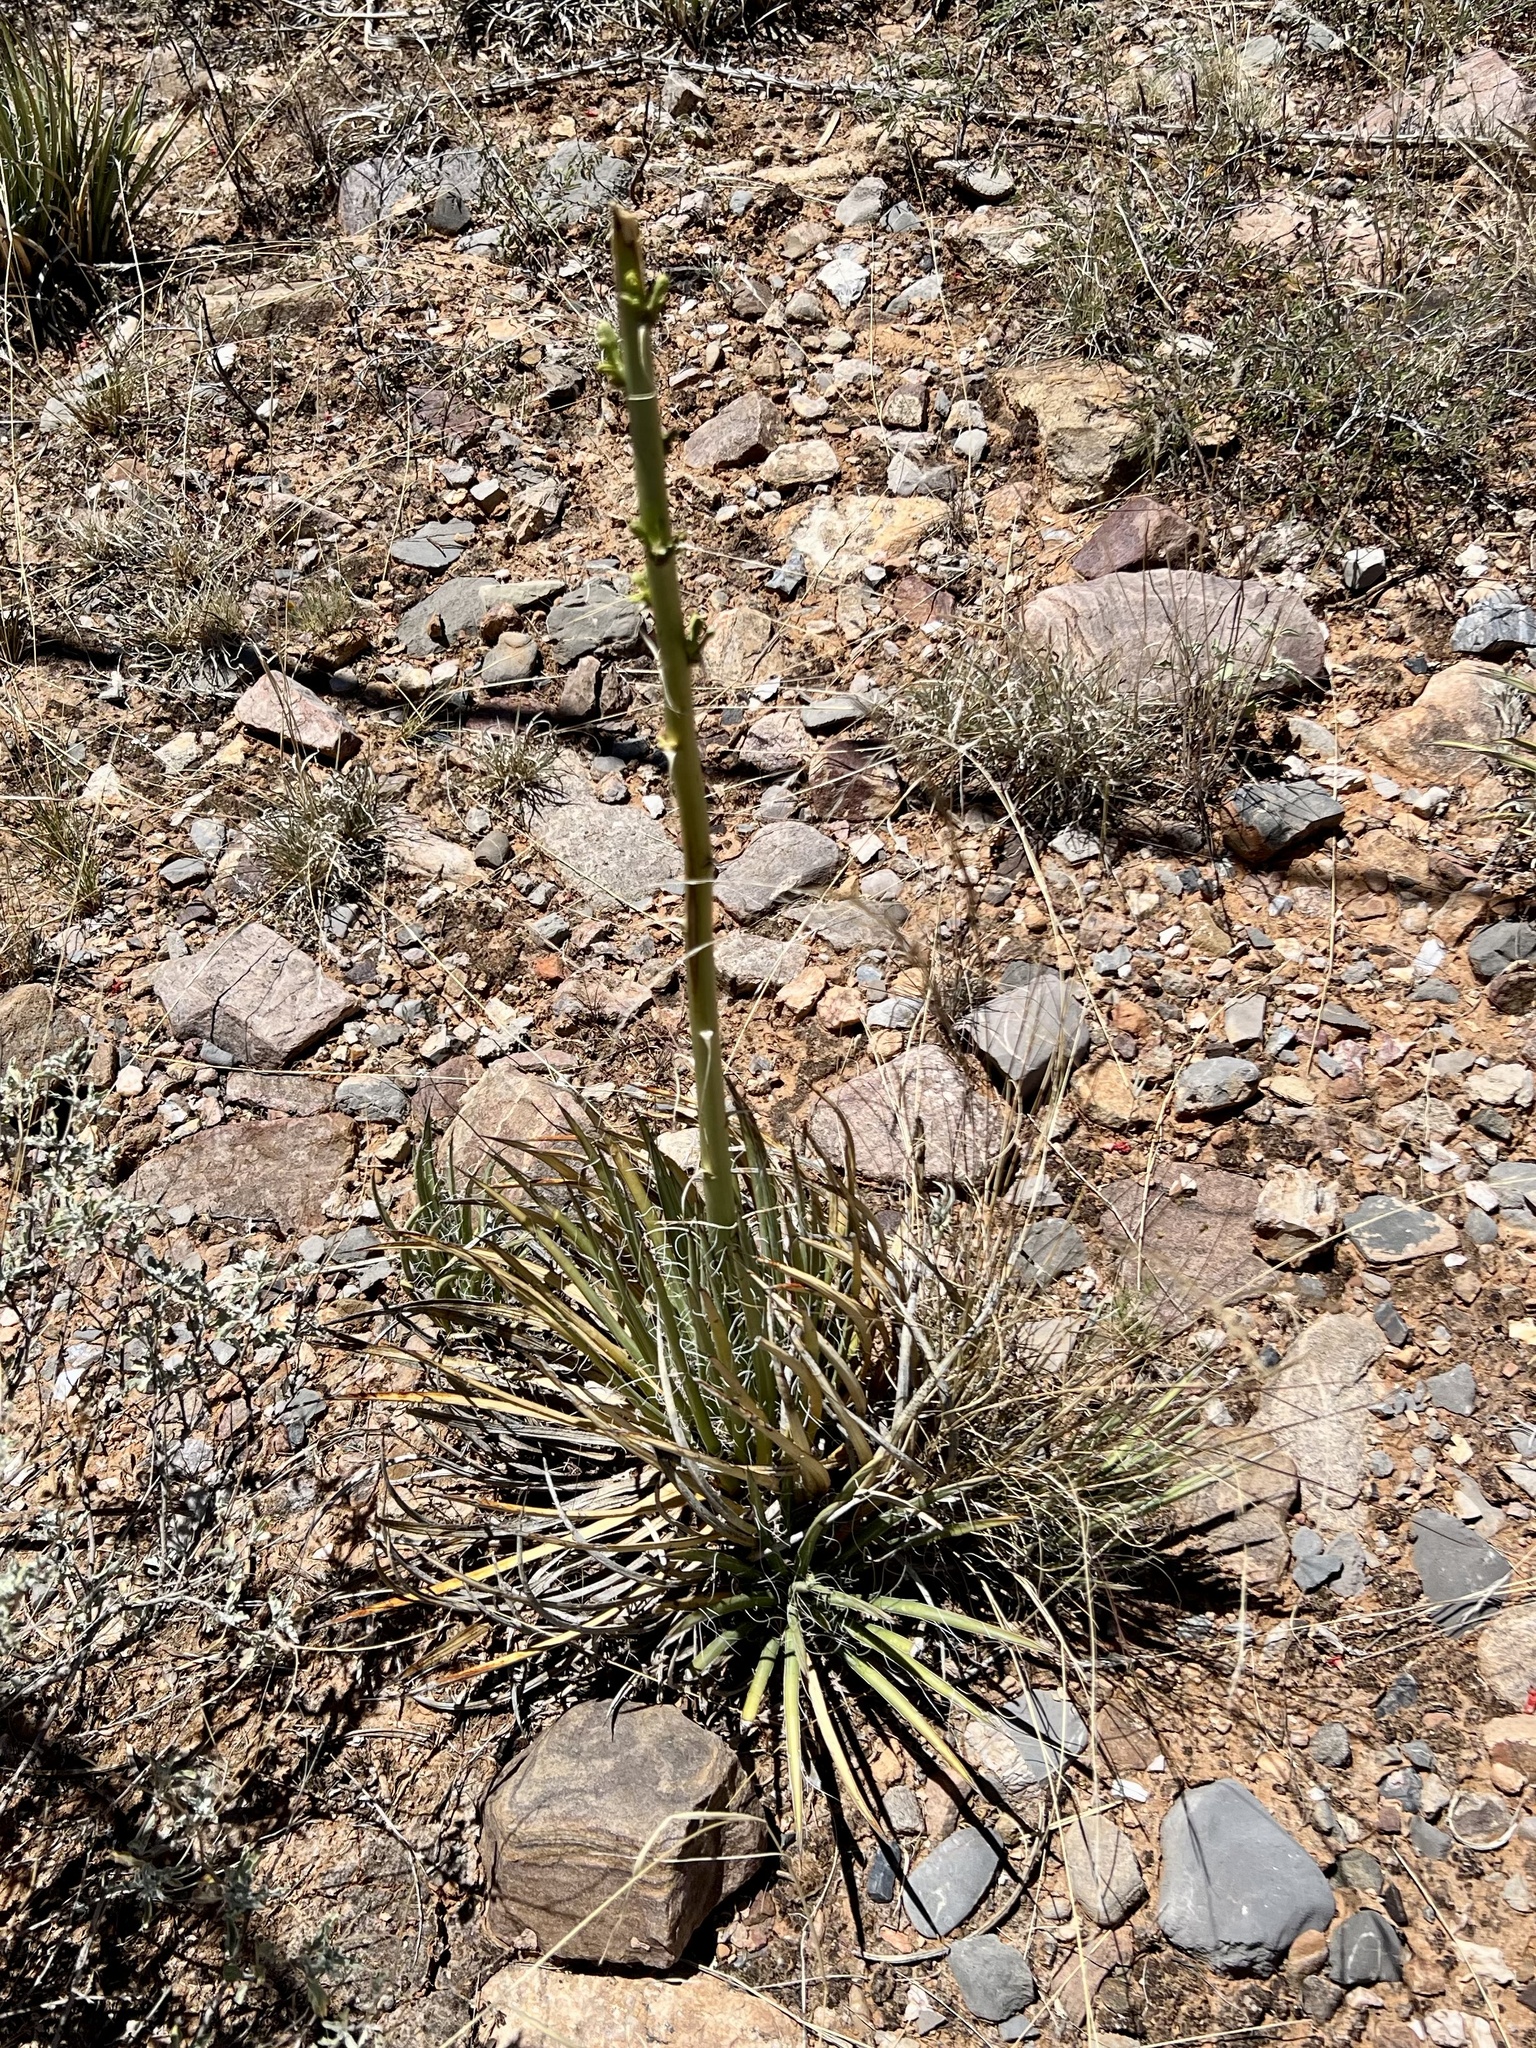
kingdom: Plantae
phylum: Tracheophyta
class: Liliopsida
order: Asparagales
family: Asparagaceae
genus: Agave
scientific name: Agave schottii
